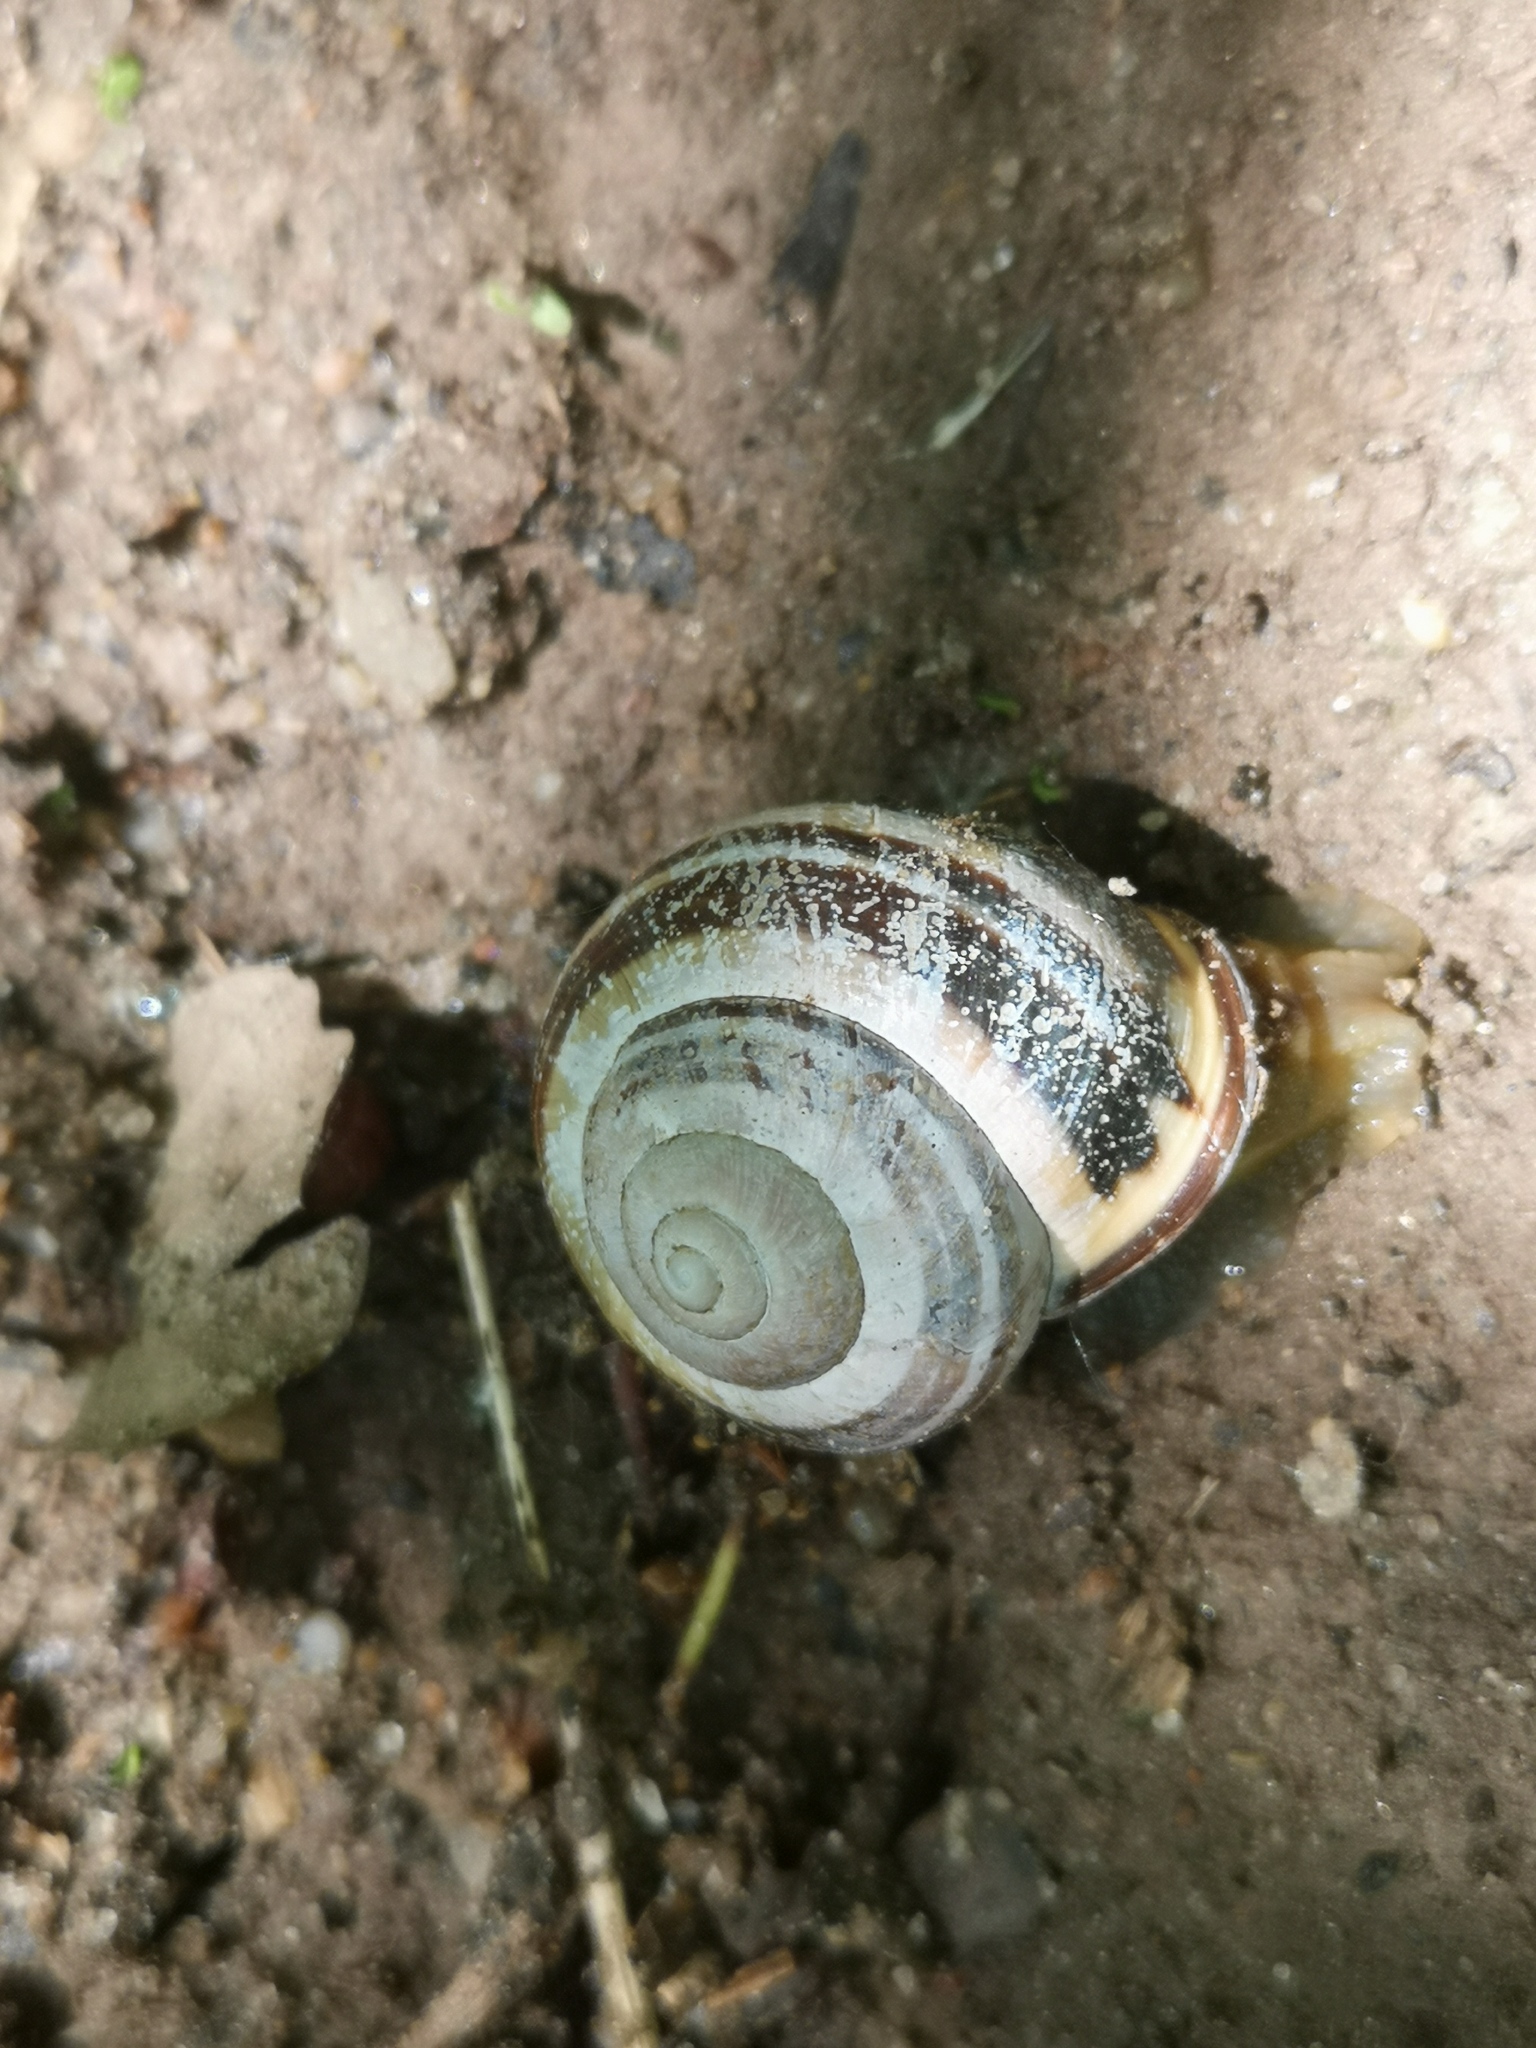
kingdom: Animalia
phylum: Mollusca
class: Gastropoda
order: Stylommatophora
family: Helicidae
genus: Cepaea
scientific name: Cepaea nemoralis
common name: Grovesnail
